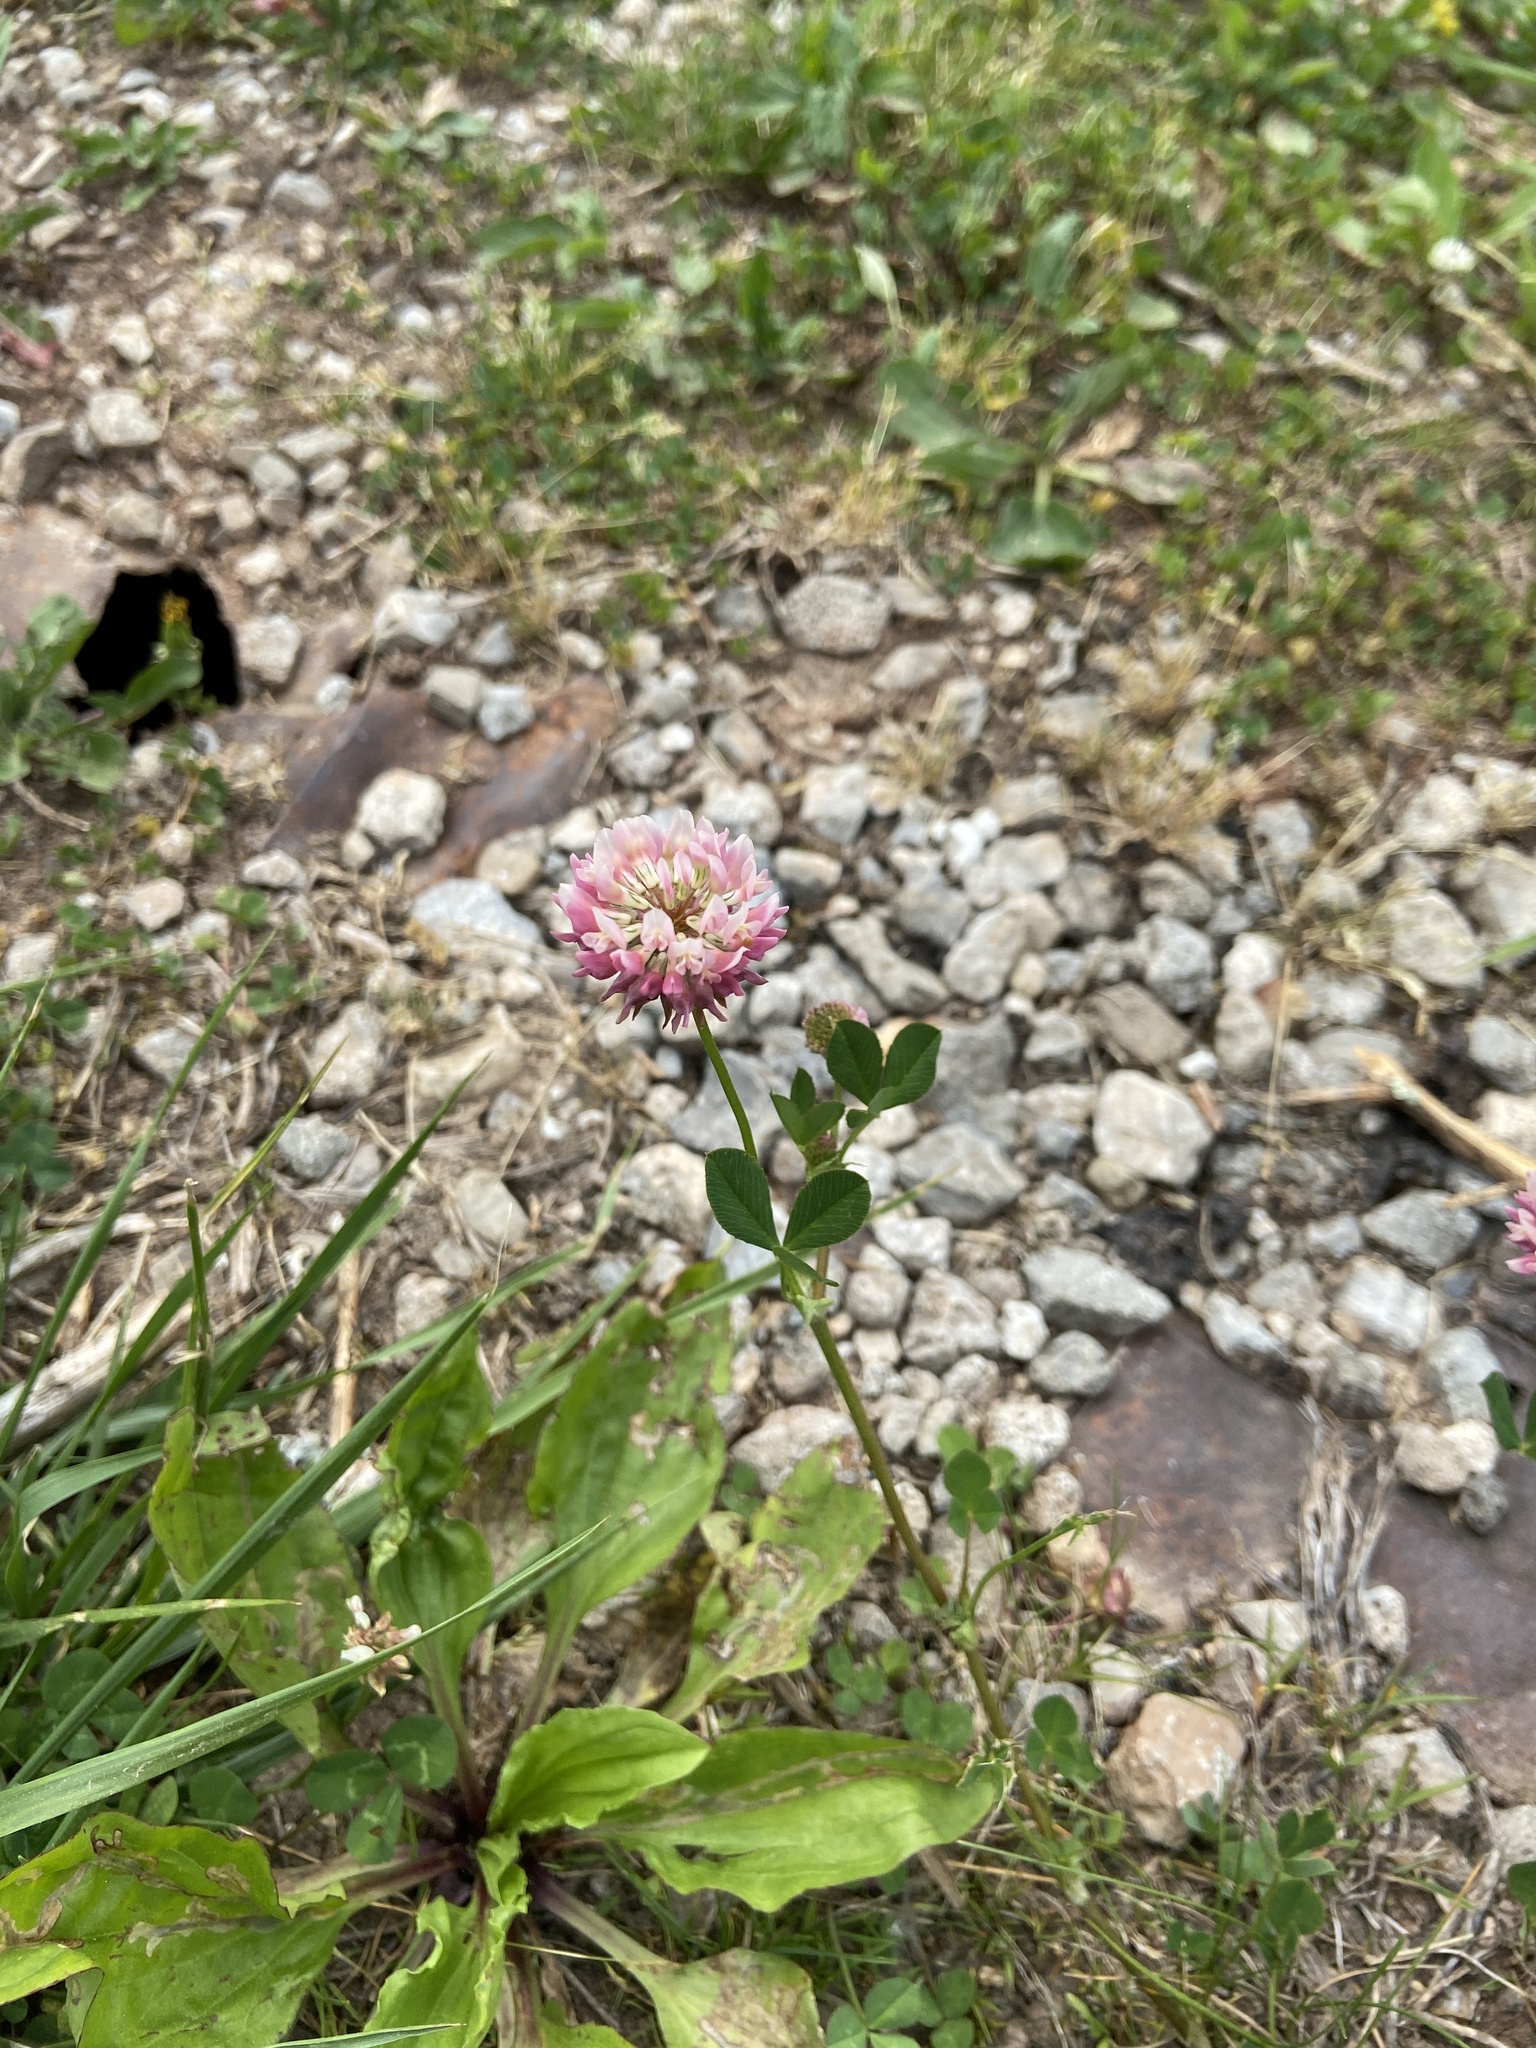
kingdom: Plantae
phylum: Tracheophyta
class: Magnoliopsida
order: Fabales
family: Fabaceae
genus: Trifolium
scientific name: Trifolium hybridum
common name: Alsike clover
